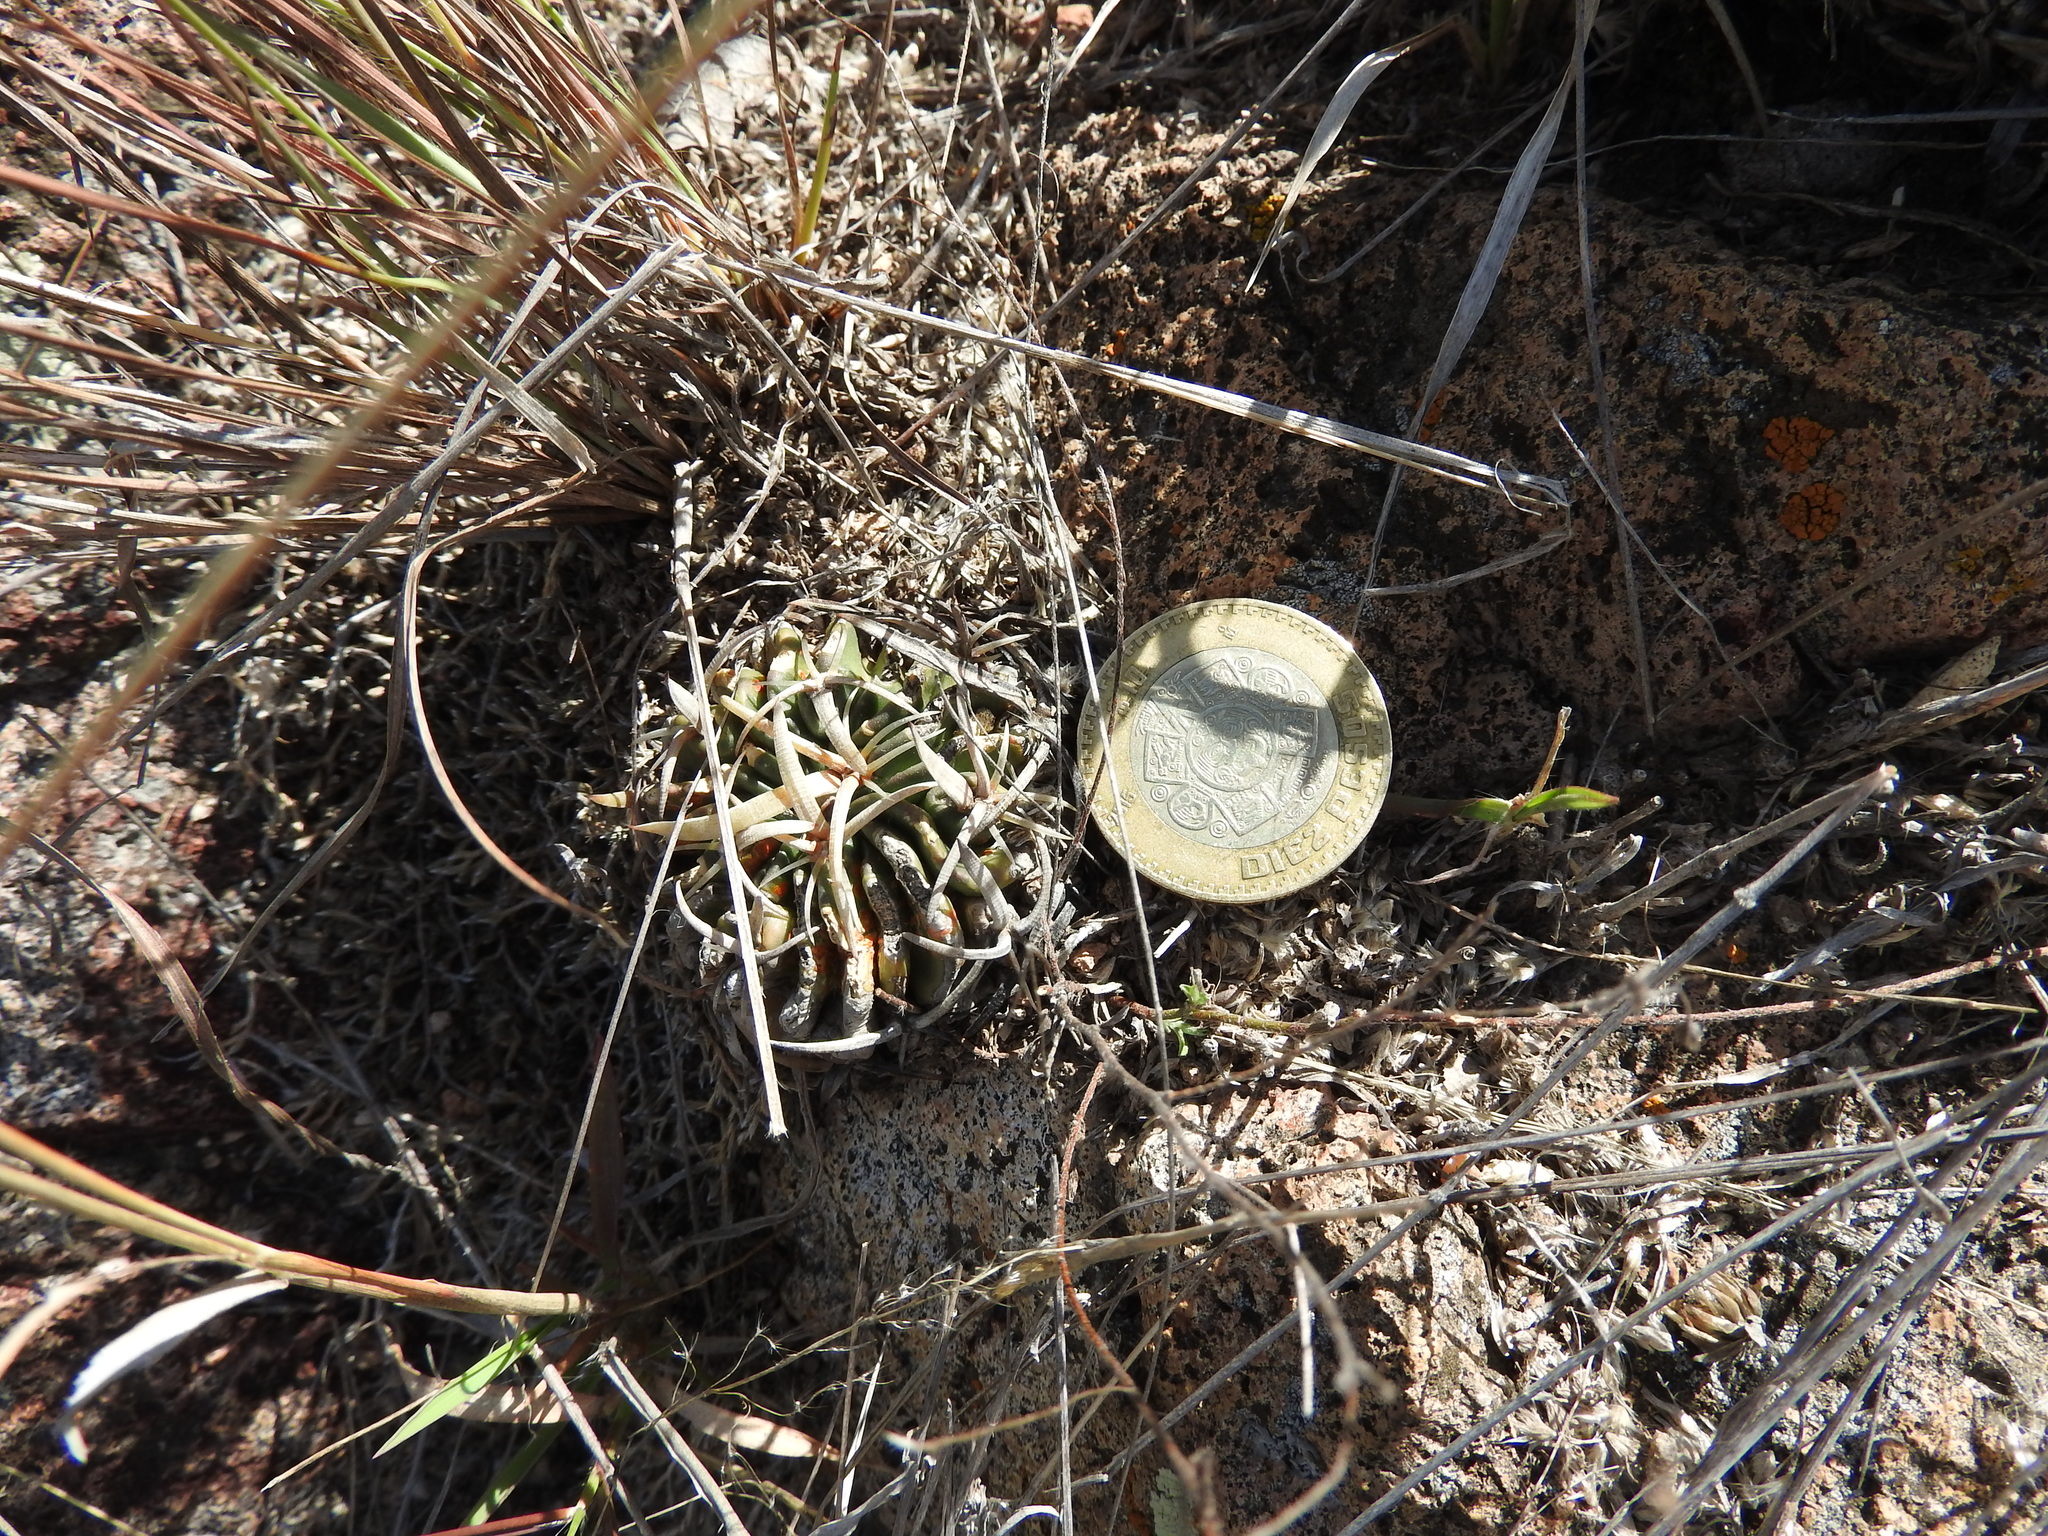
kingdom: Plantae
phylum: Tracheophyta
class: Magnoliopsida
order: Caryophyllales
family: Cactaceae
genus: Stenocactus
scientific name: Stenocactus obvallatus
